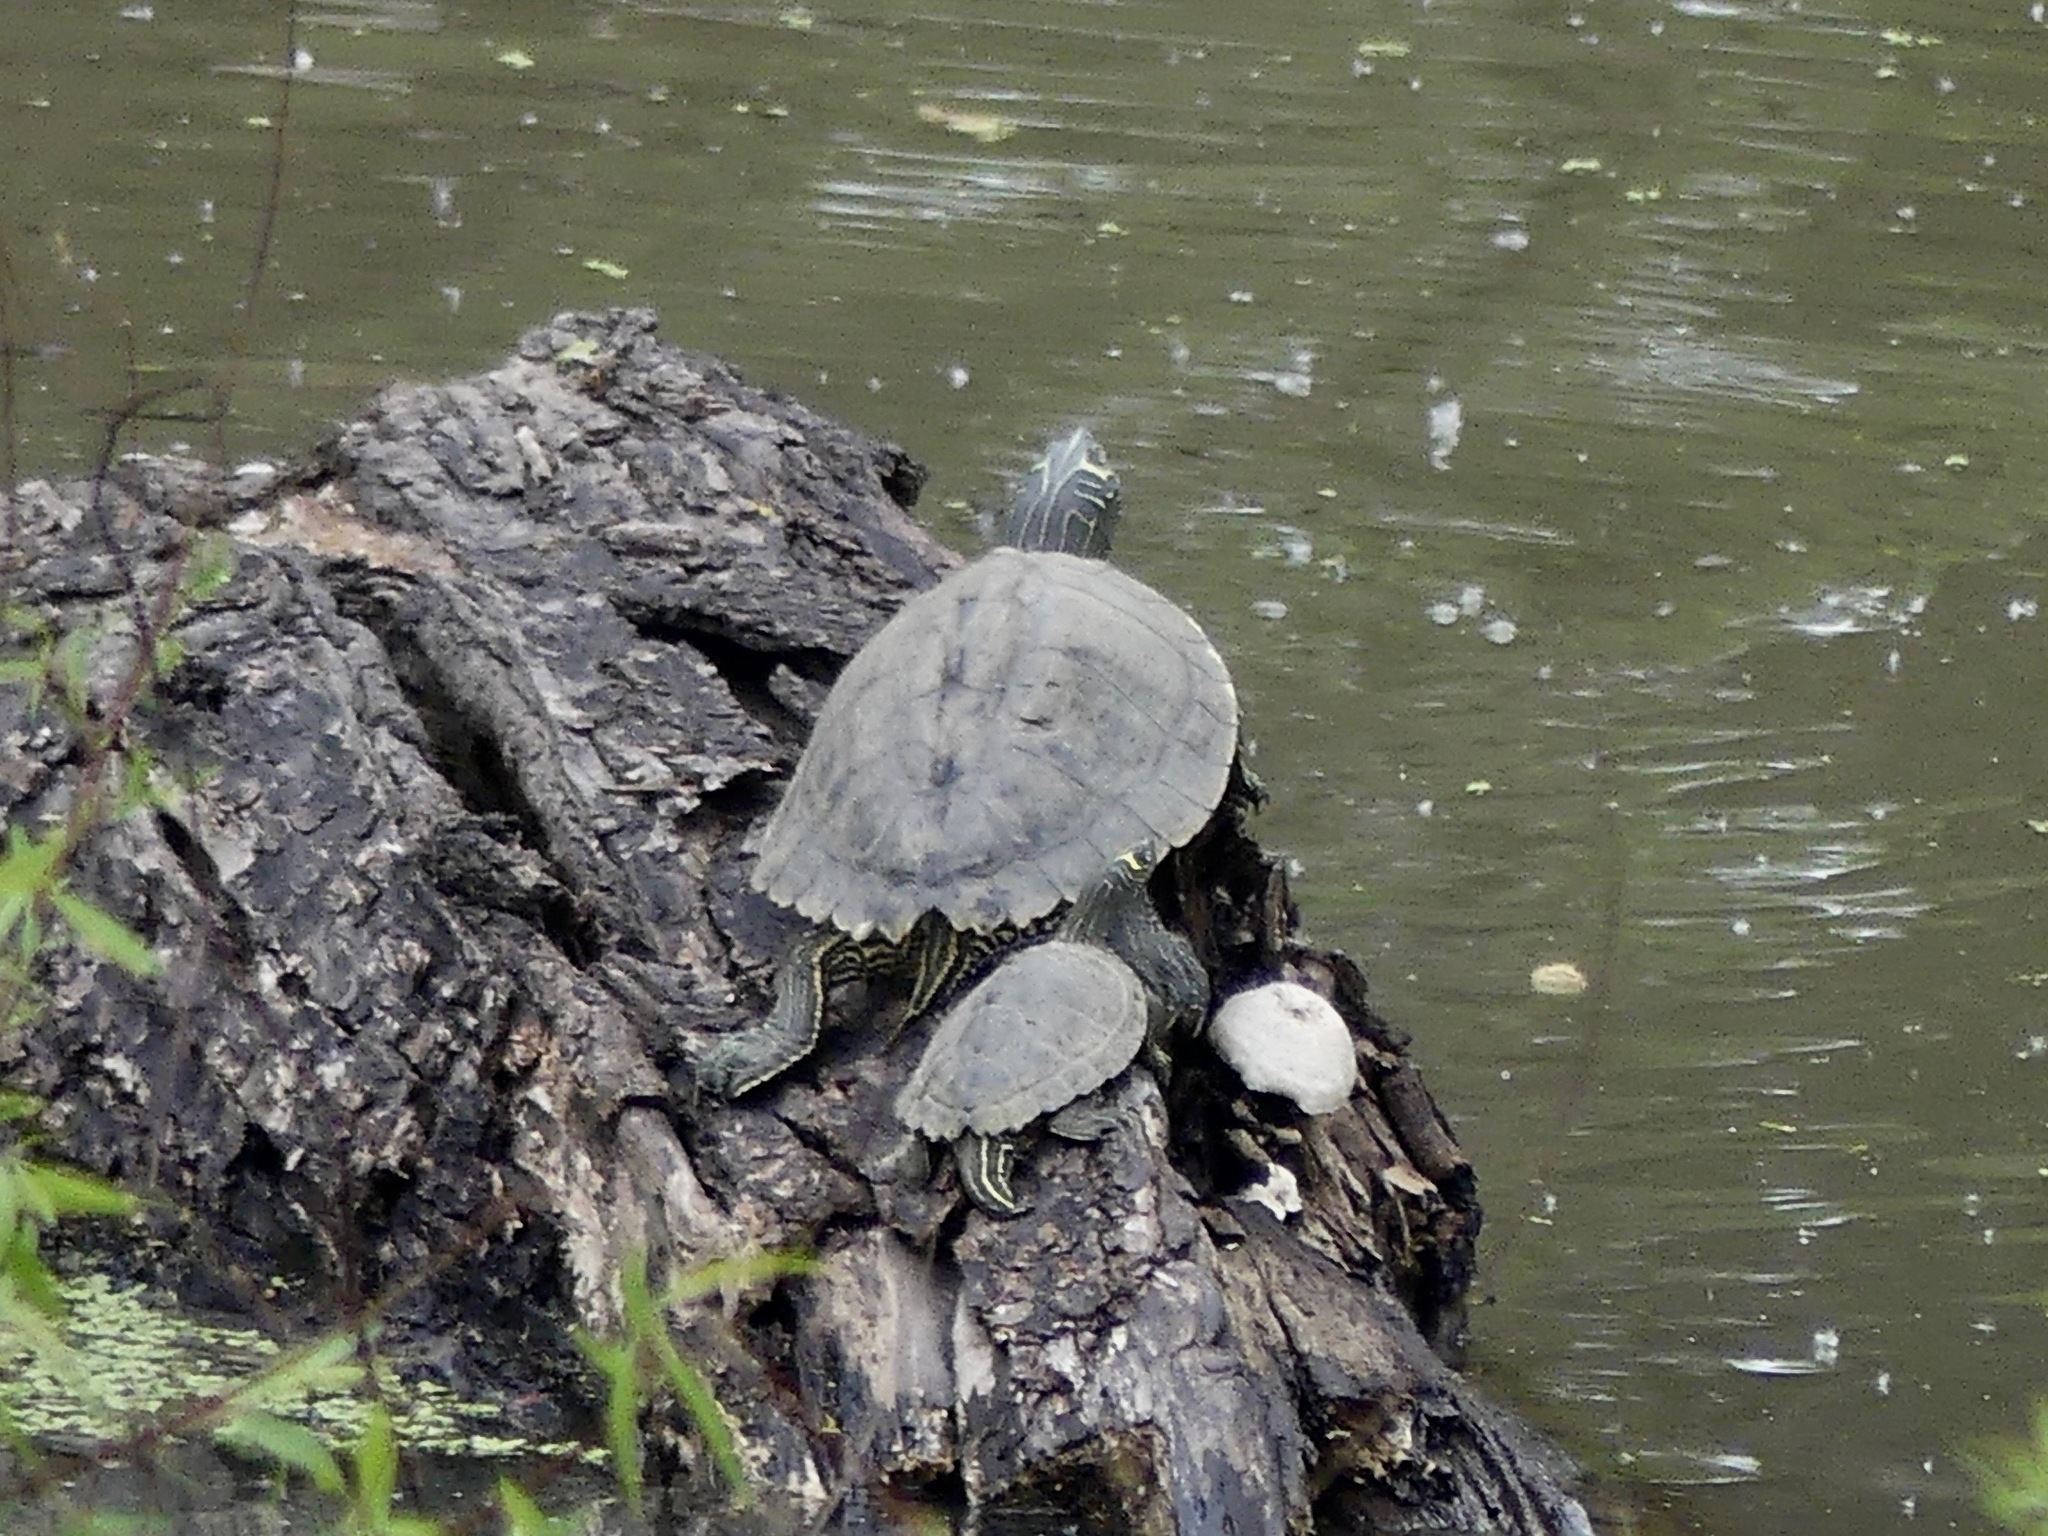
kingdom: Animalia
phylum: Chordata
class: Testudines
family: Emydidae
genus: Graptemys
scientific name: Graptemys pseudogeographica
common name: False map turtle
